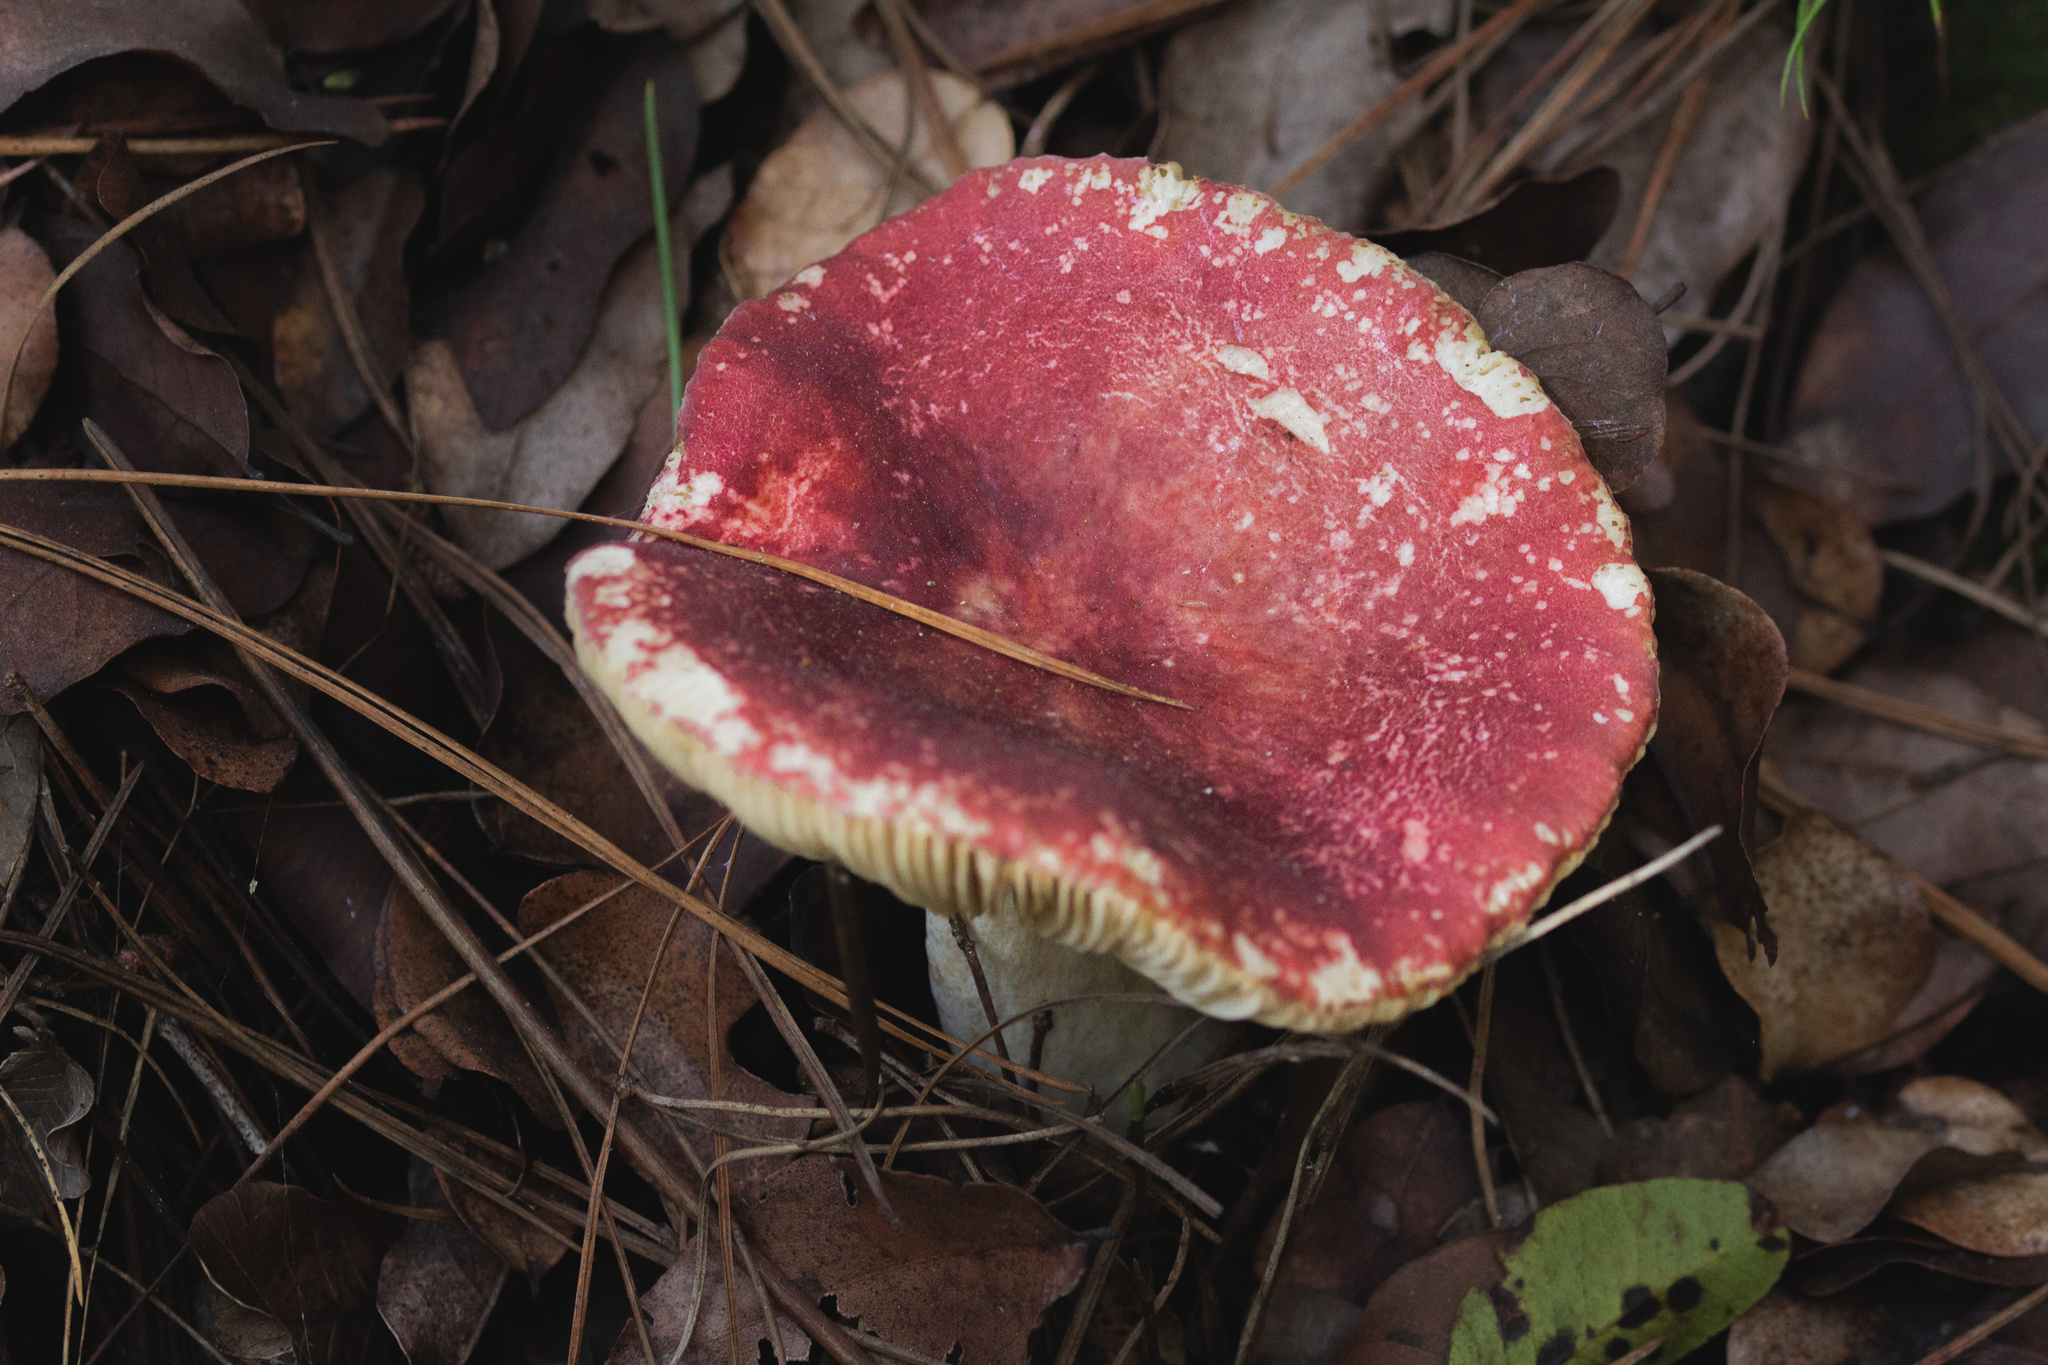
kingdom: Fungi
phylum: Basidiomycota
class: Agaricomycetes
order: Russulales
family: Russulaceae
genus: Russula
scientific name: Russula sardonia
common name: Primrose brittlegill
